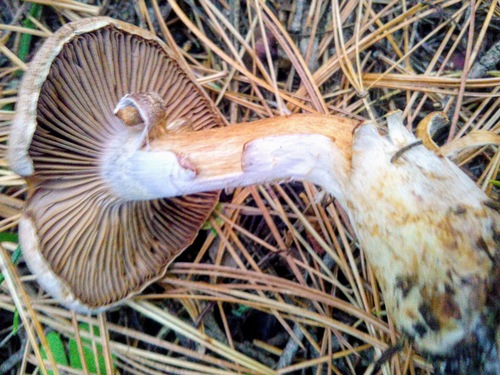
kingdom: Fungi
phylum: Basidiomycota
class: Agaricomycetes
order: Agaricales
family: Cortinariaceae
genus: Cortinarius
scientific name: Cortinarius
